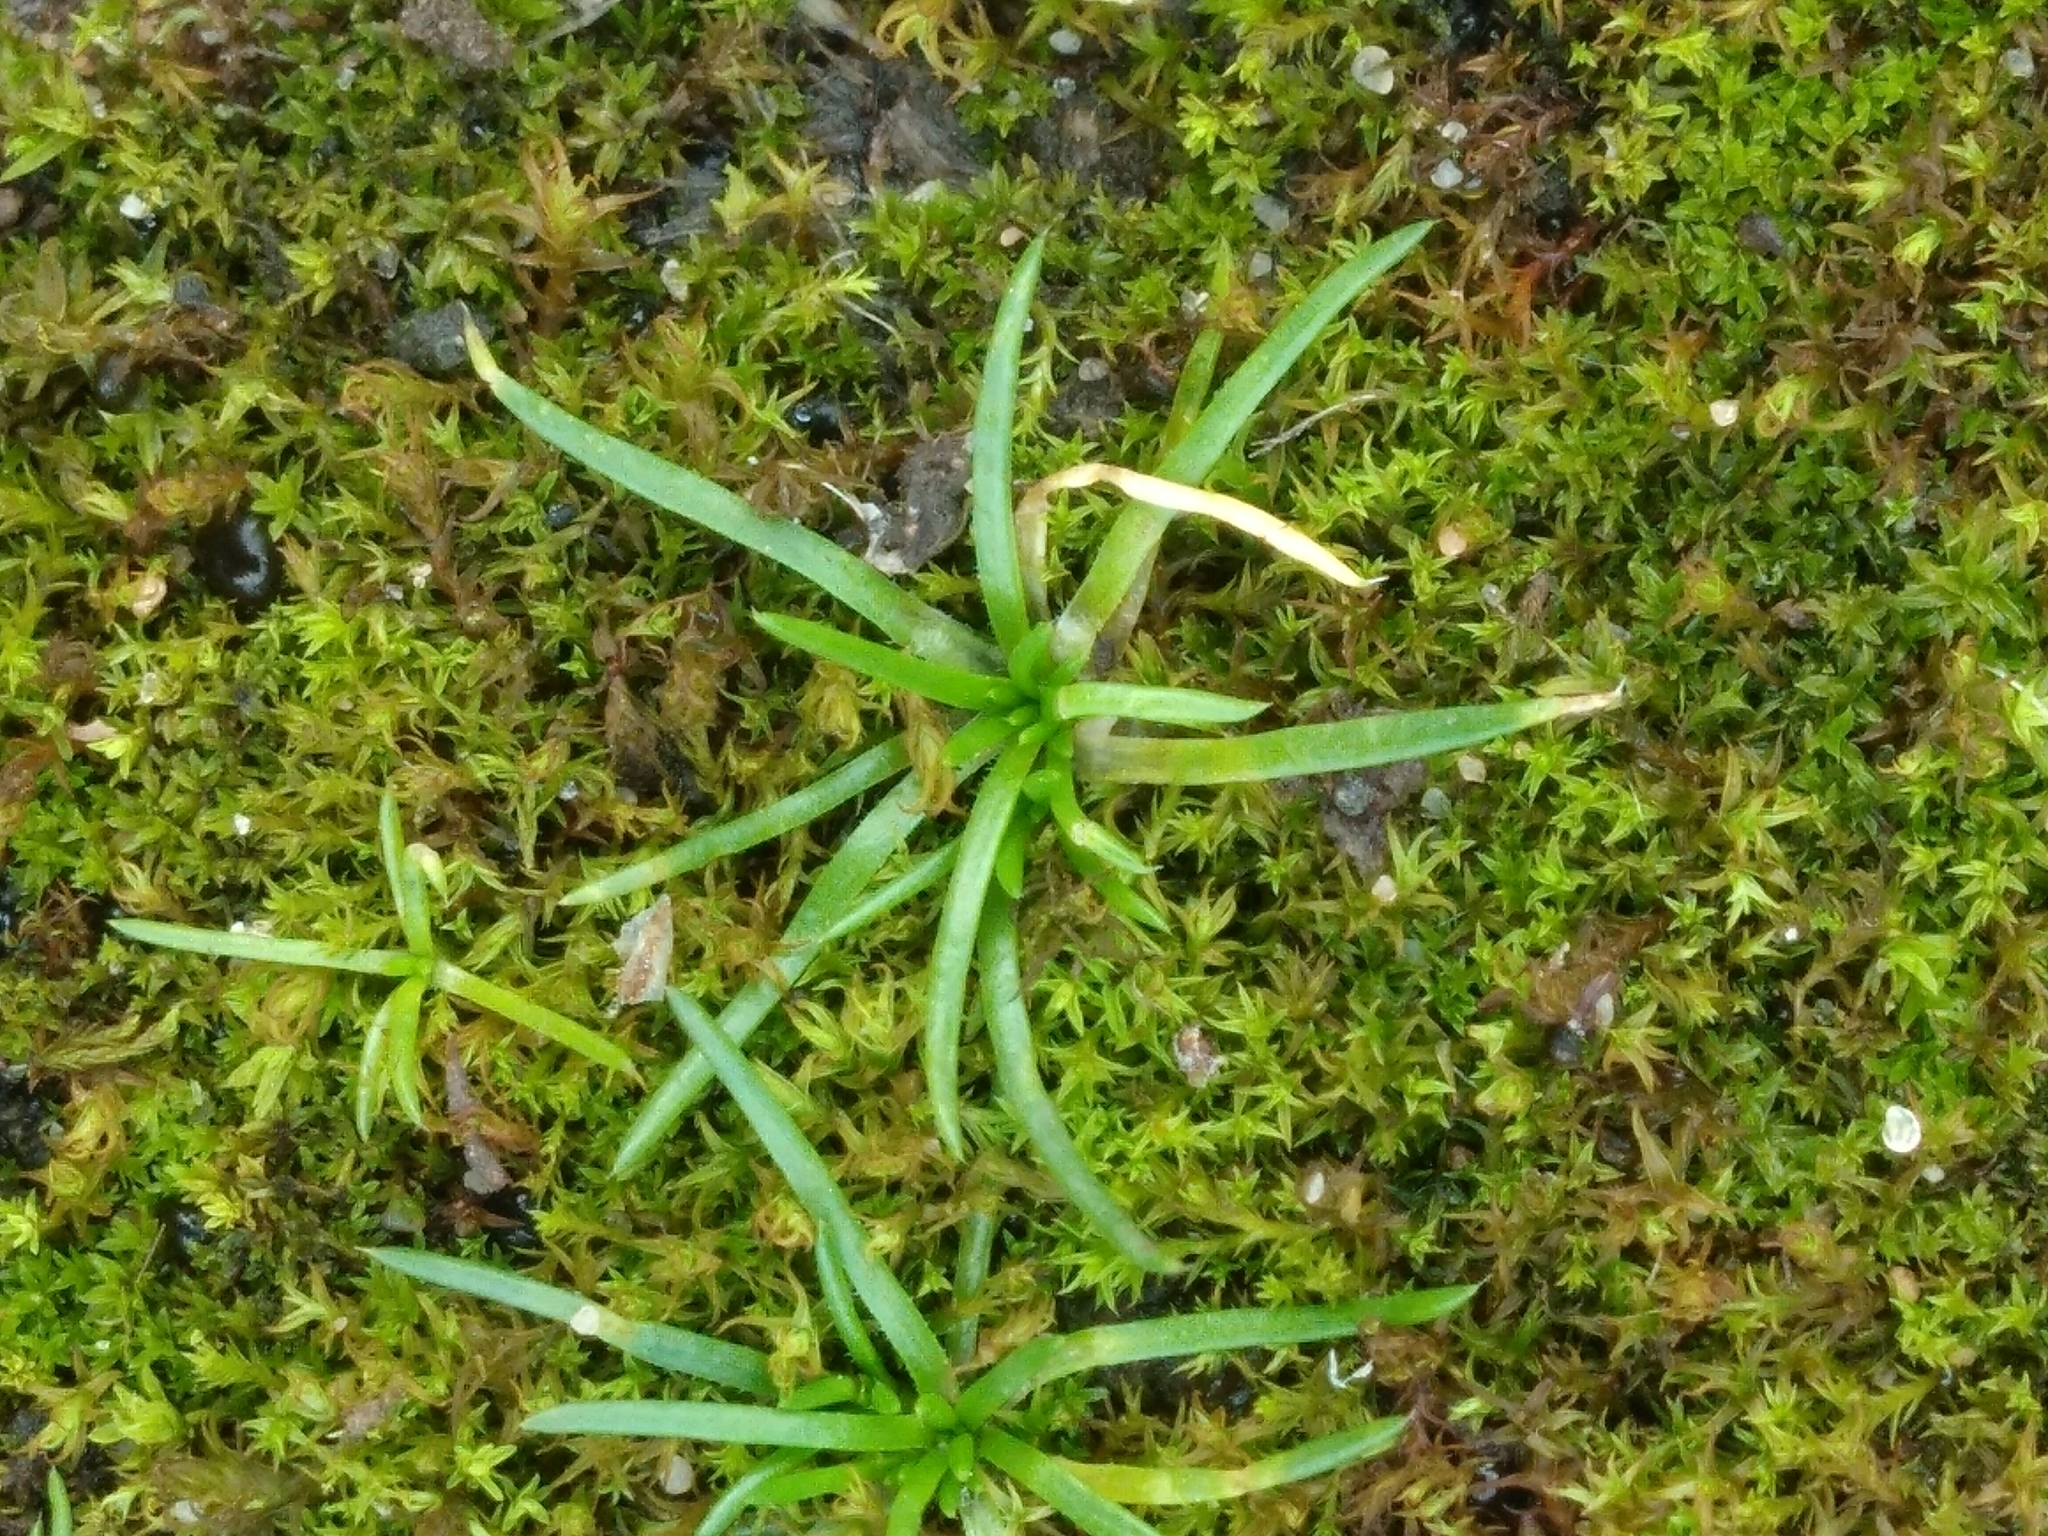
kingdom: Plantae
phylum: Tracheophyta
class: Magnoliopsida
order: Caryophyllales
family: Caryophyllaceae
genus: Sagina
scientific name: Sagina procumbens
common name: Procumbent pearlwort
